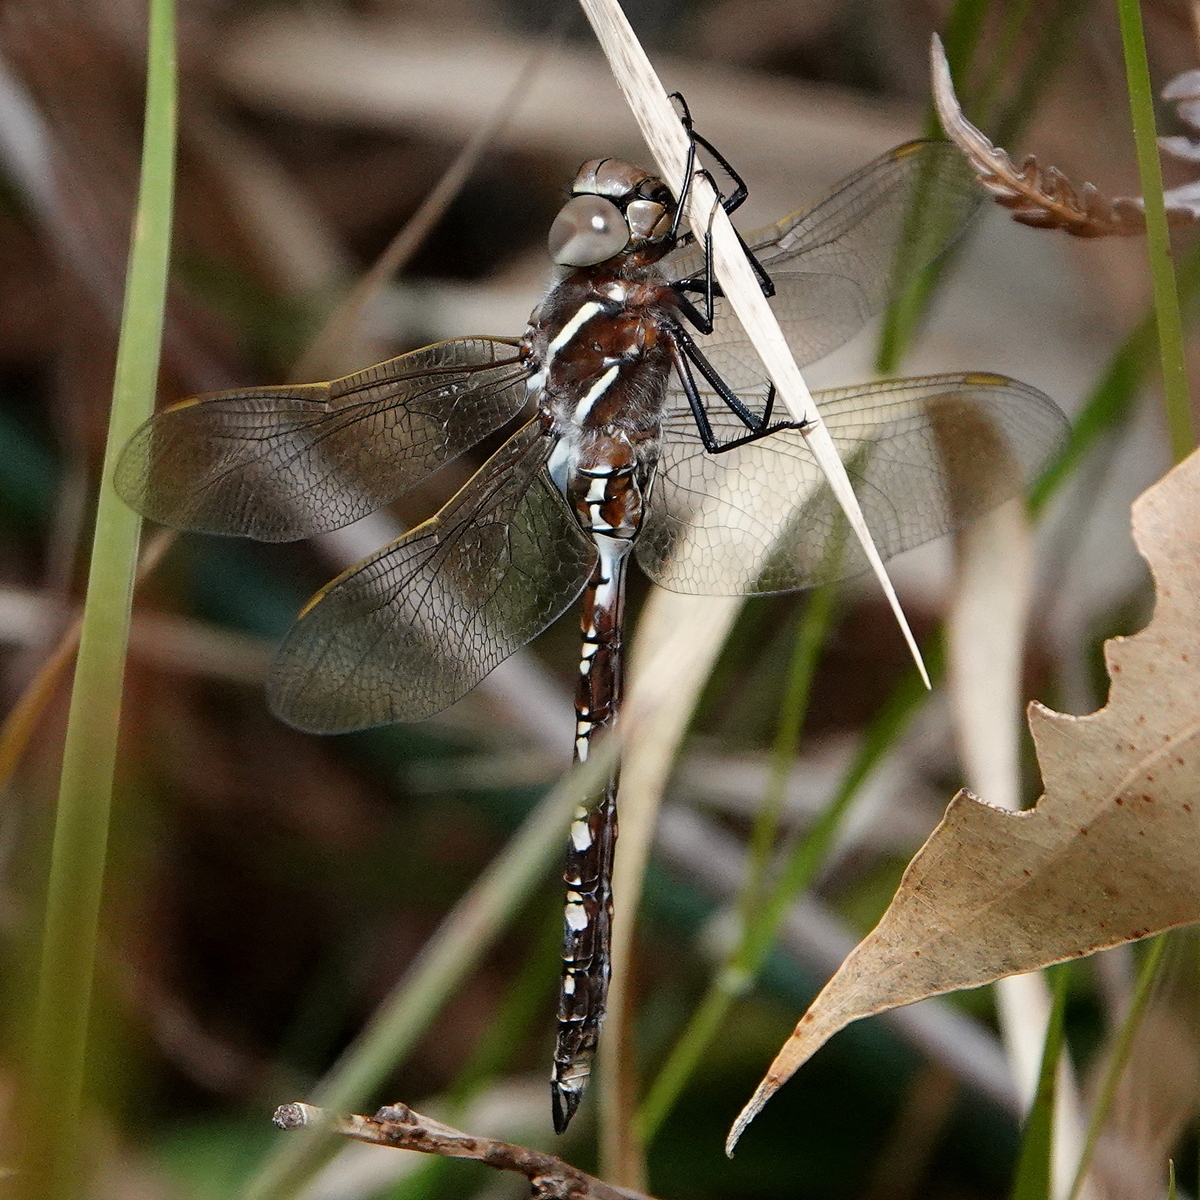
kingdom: Animalia
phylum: Arthropoda
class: Insecta
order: Odonata
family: Aeshnidae
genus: Aeshna
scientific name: Aeshna brevistyla
